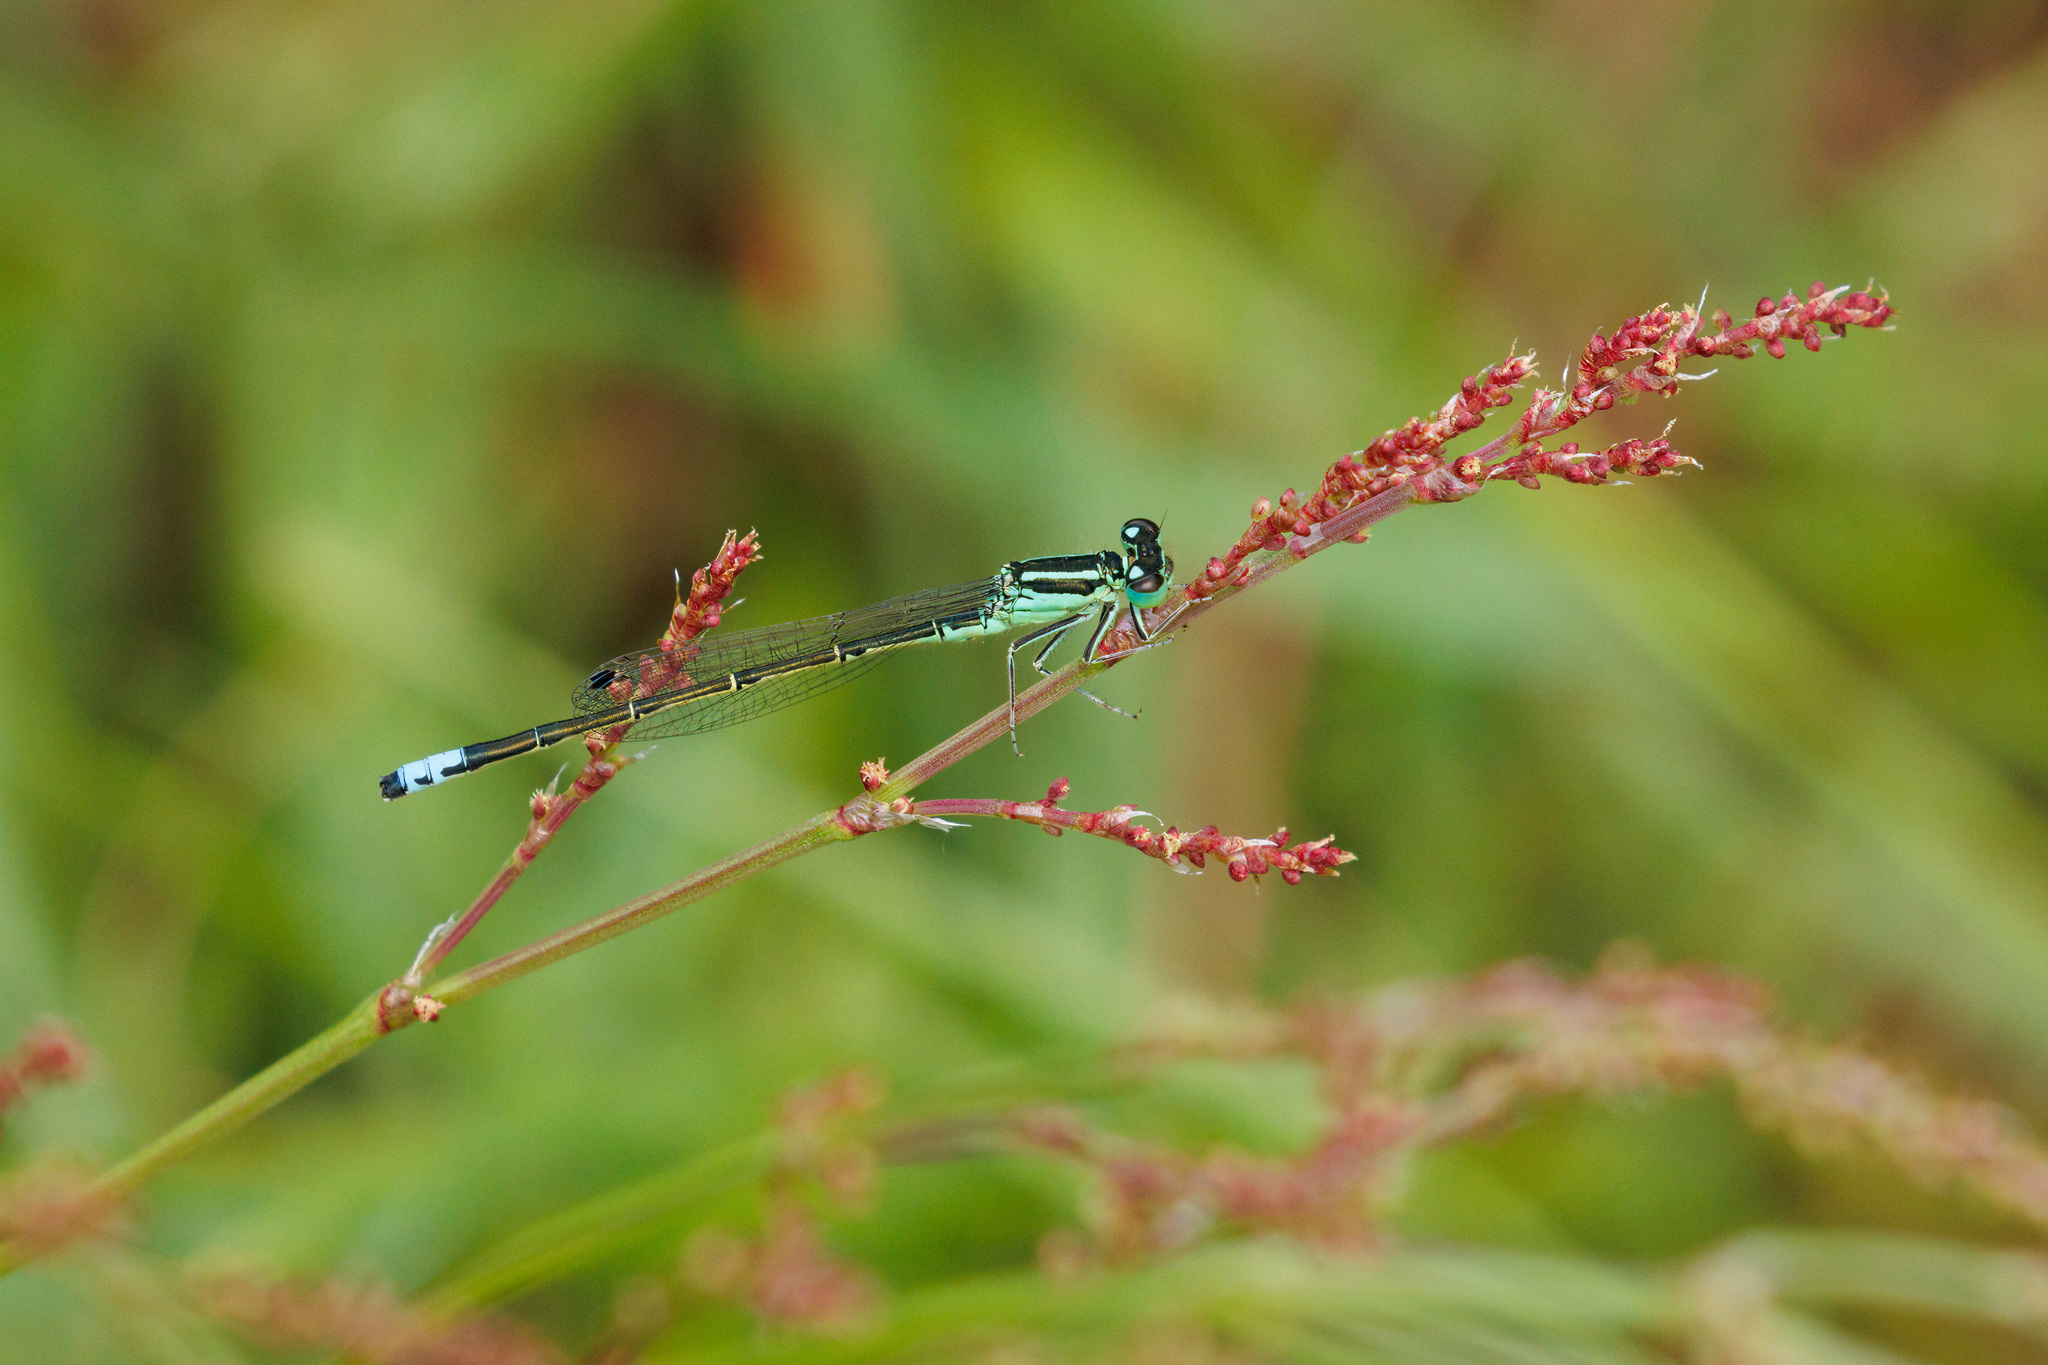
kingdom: Animalia
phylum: Arthropoda
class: Insecta
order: Odonata
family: Coenagrionidae
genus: Ischnura
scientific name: Ischnura perparva
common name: Western forktail
